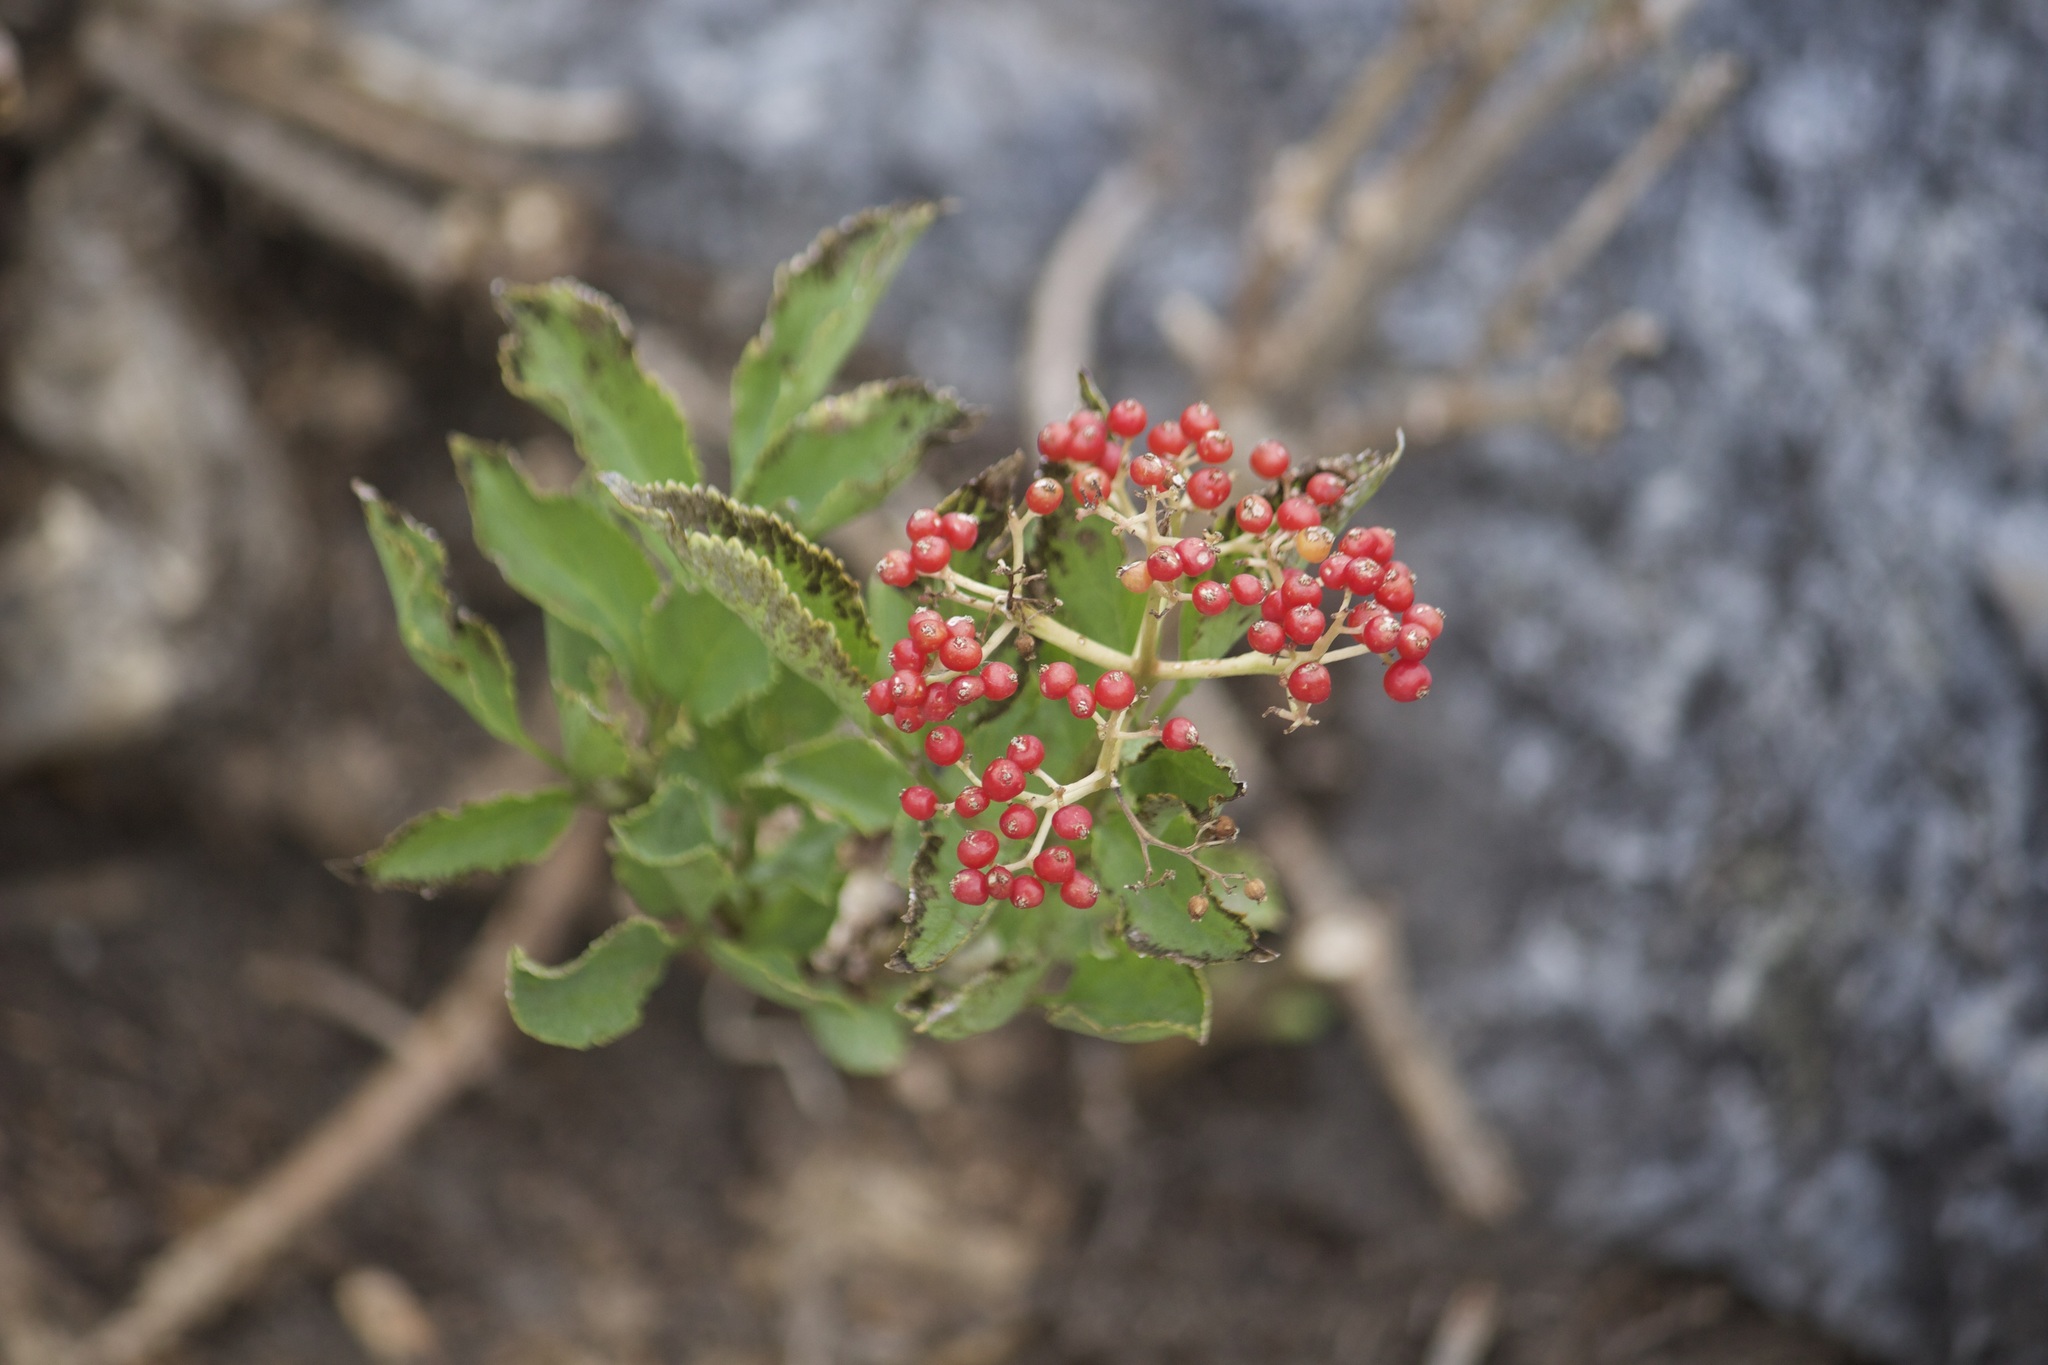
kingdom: Plantae
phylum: Tracheophyta
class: Magnoliopsida
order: Dipsacales
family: Viburnaceae
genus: Sambucus
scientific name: Sambucus racemosa
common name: Red-berried elder
